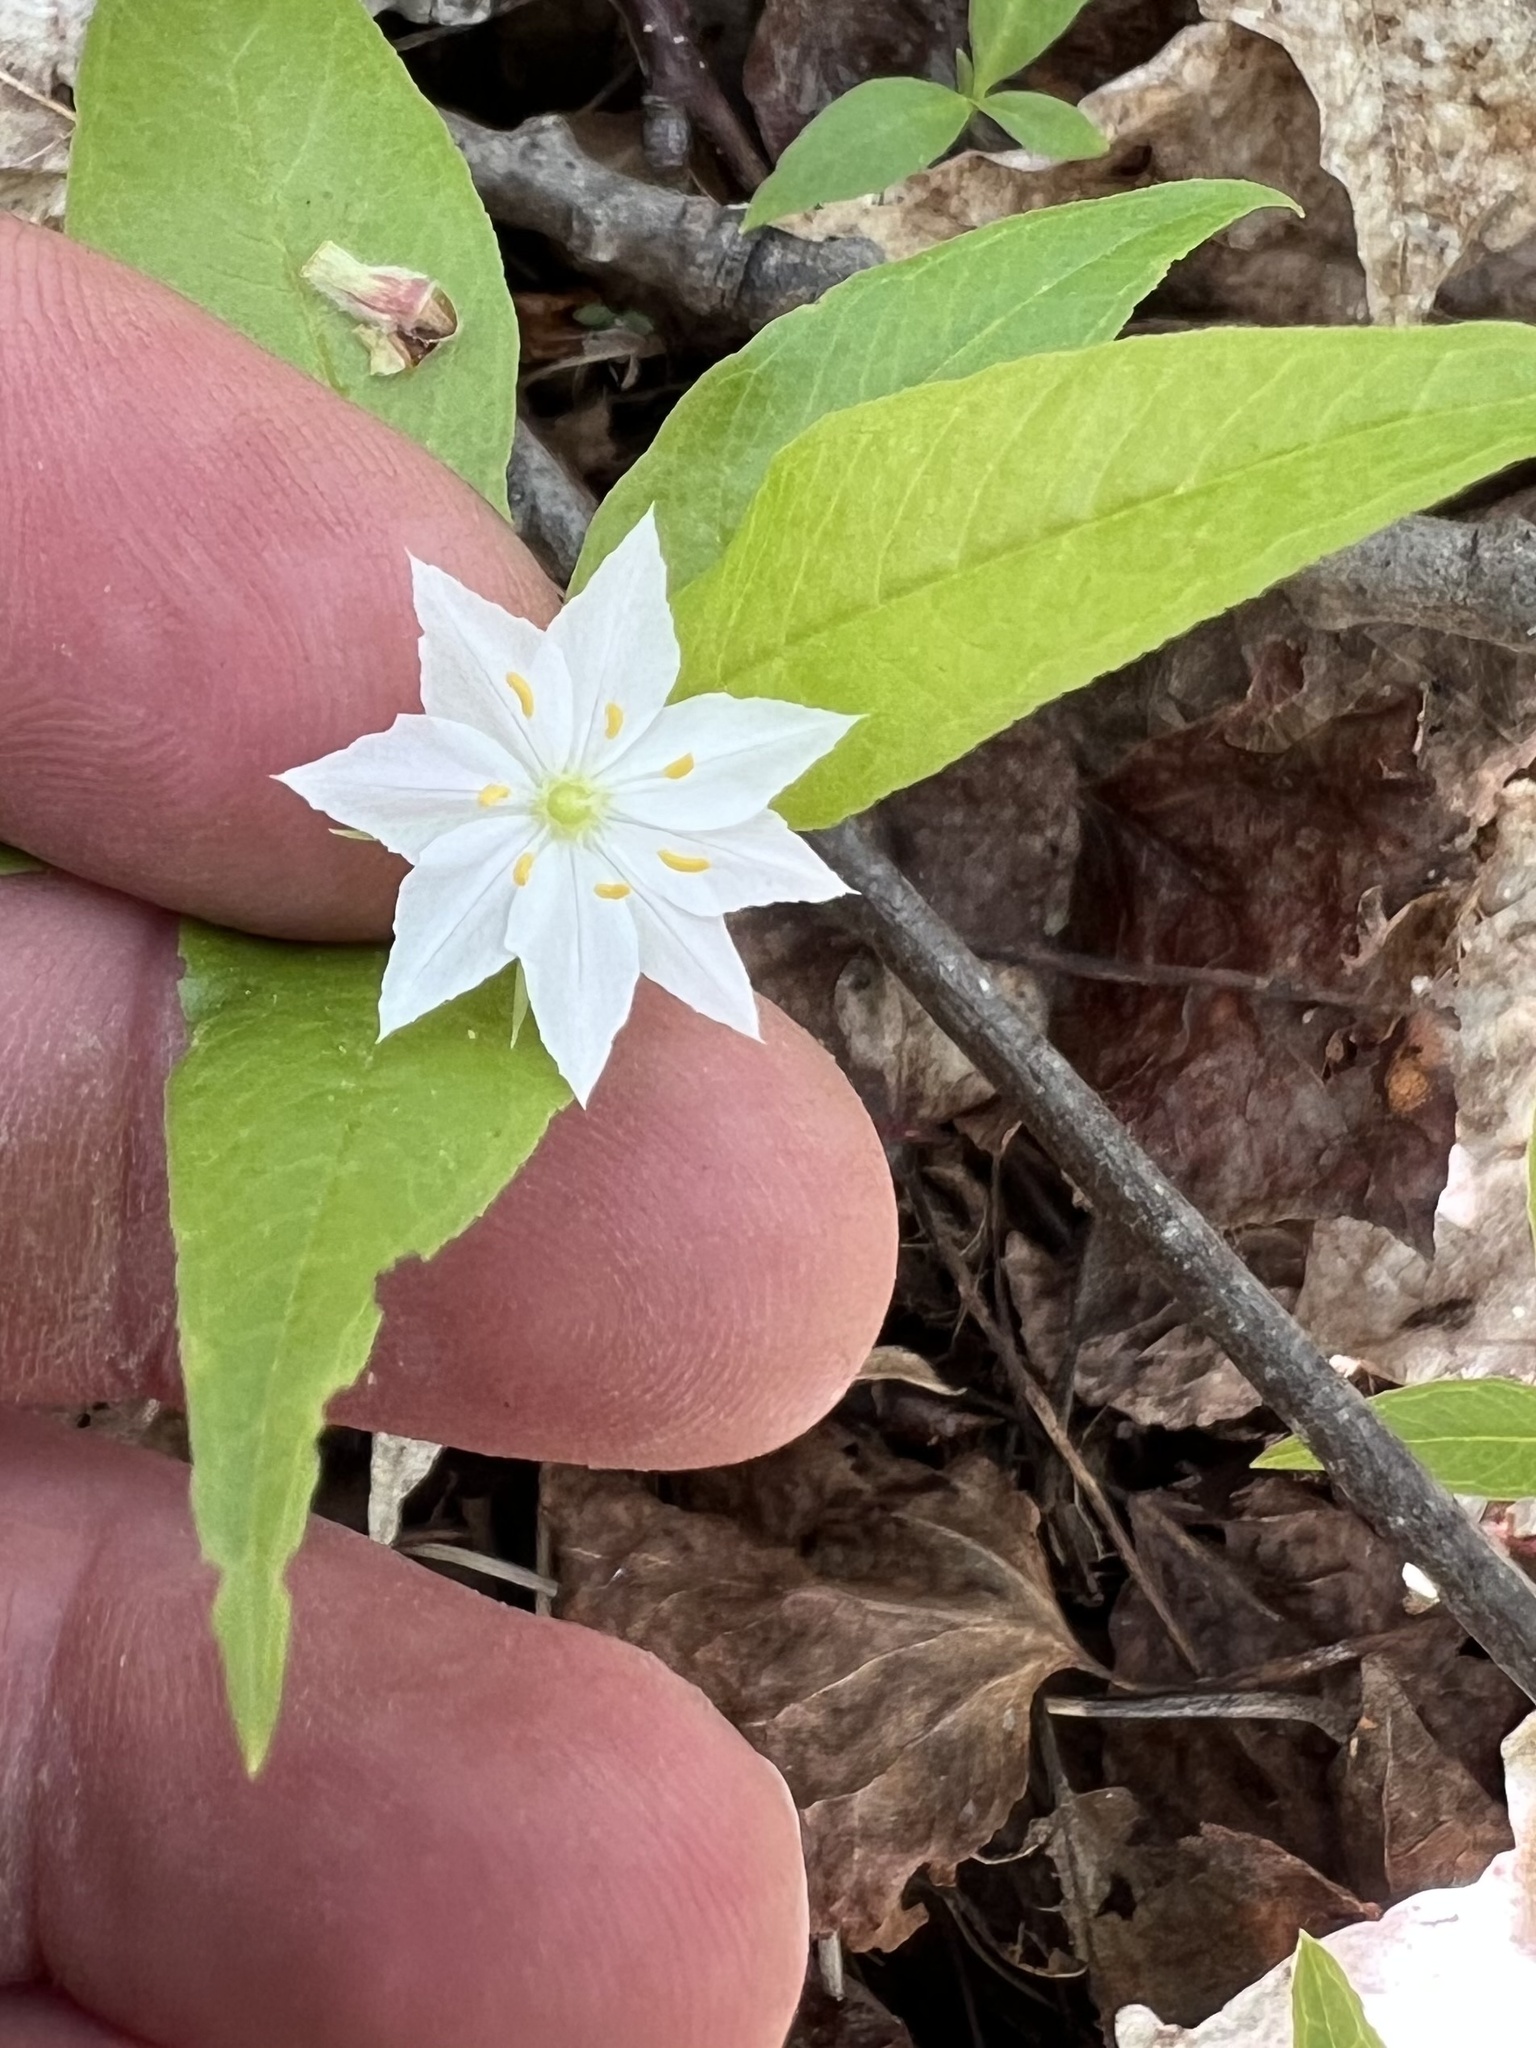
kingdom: Plantae
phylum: Tracheophyta
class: Magnoliopsida
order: Ericales
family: Primulaceae
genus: Lysimachia
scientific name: Lysimachia borealis
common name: American starflower
